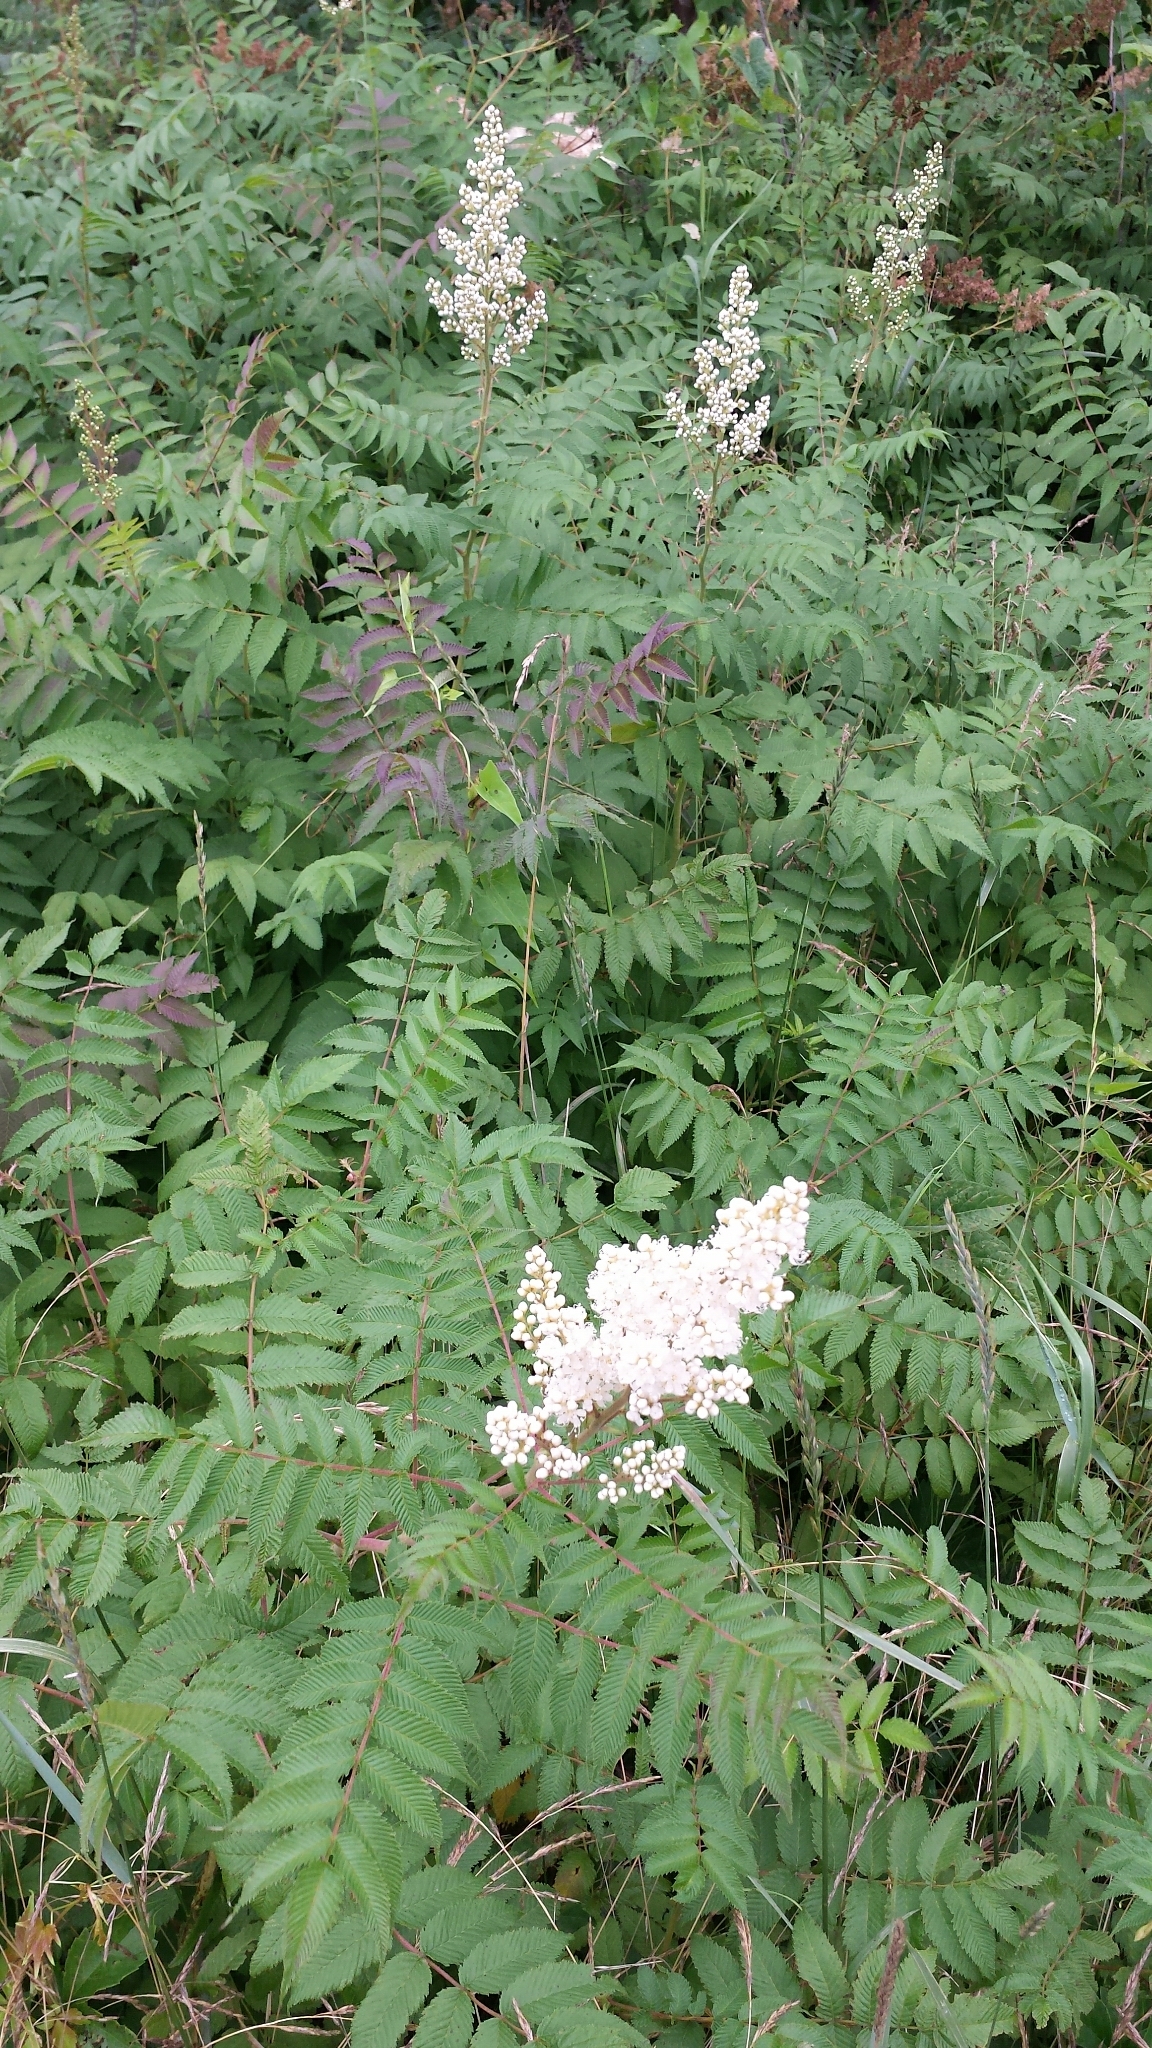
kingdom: Plantae
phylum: Tracheophyta
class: Magnoliopsida
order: Rosales
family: Rosaceae
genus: Sorbaria
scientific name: Sorbaria sorbifolia
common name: False spiraea
